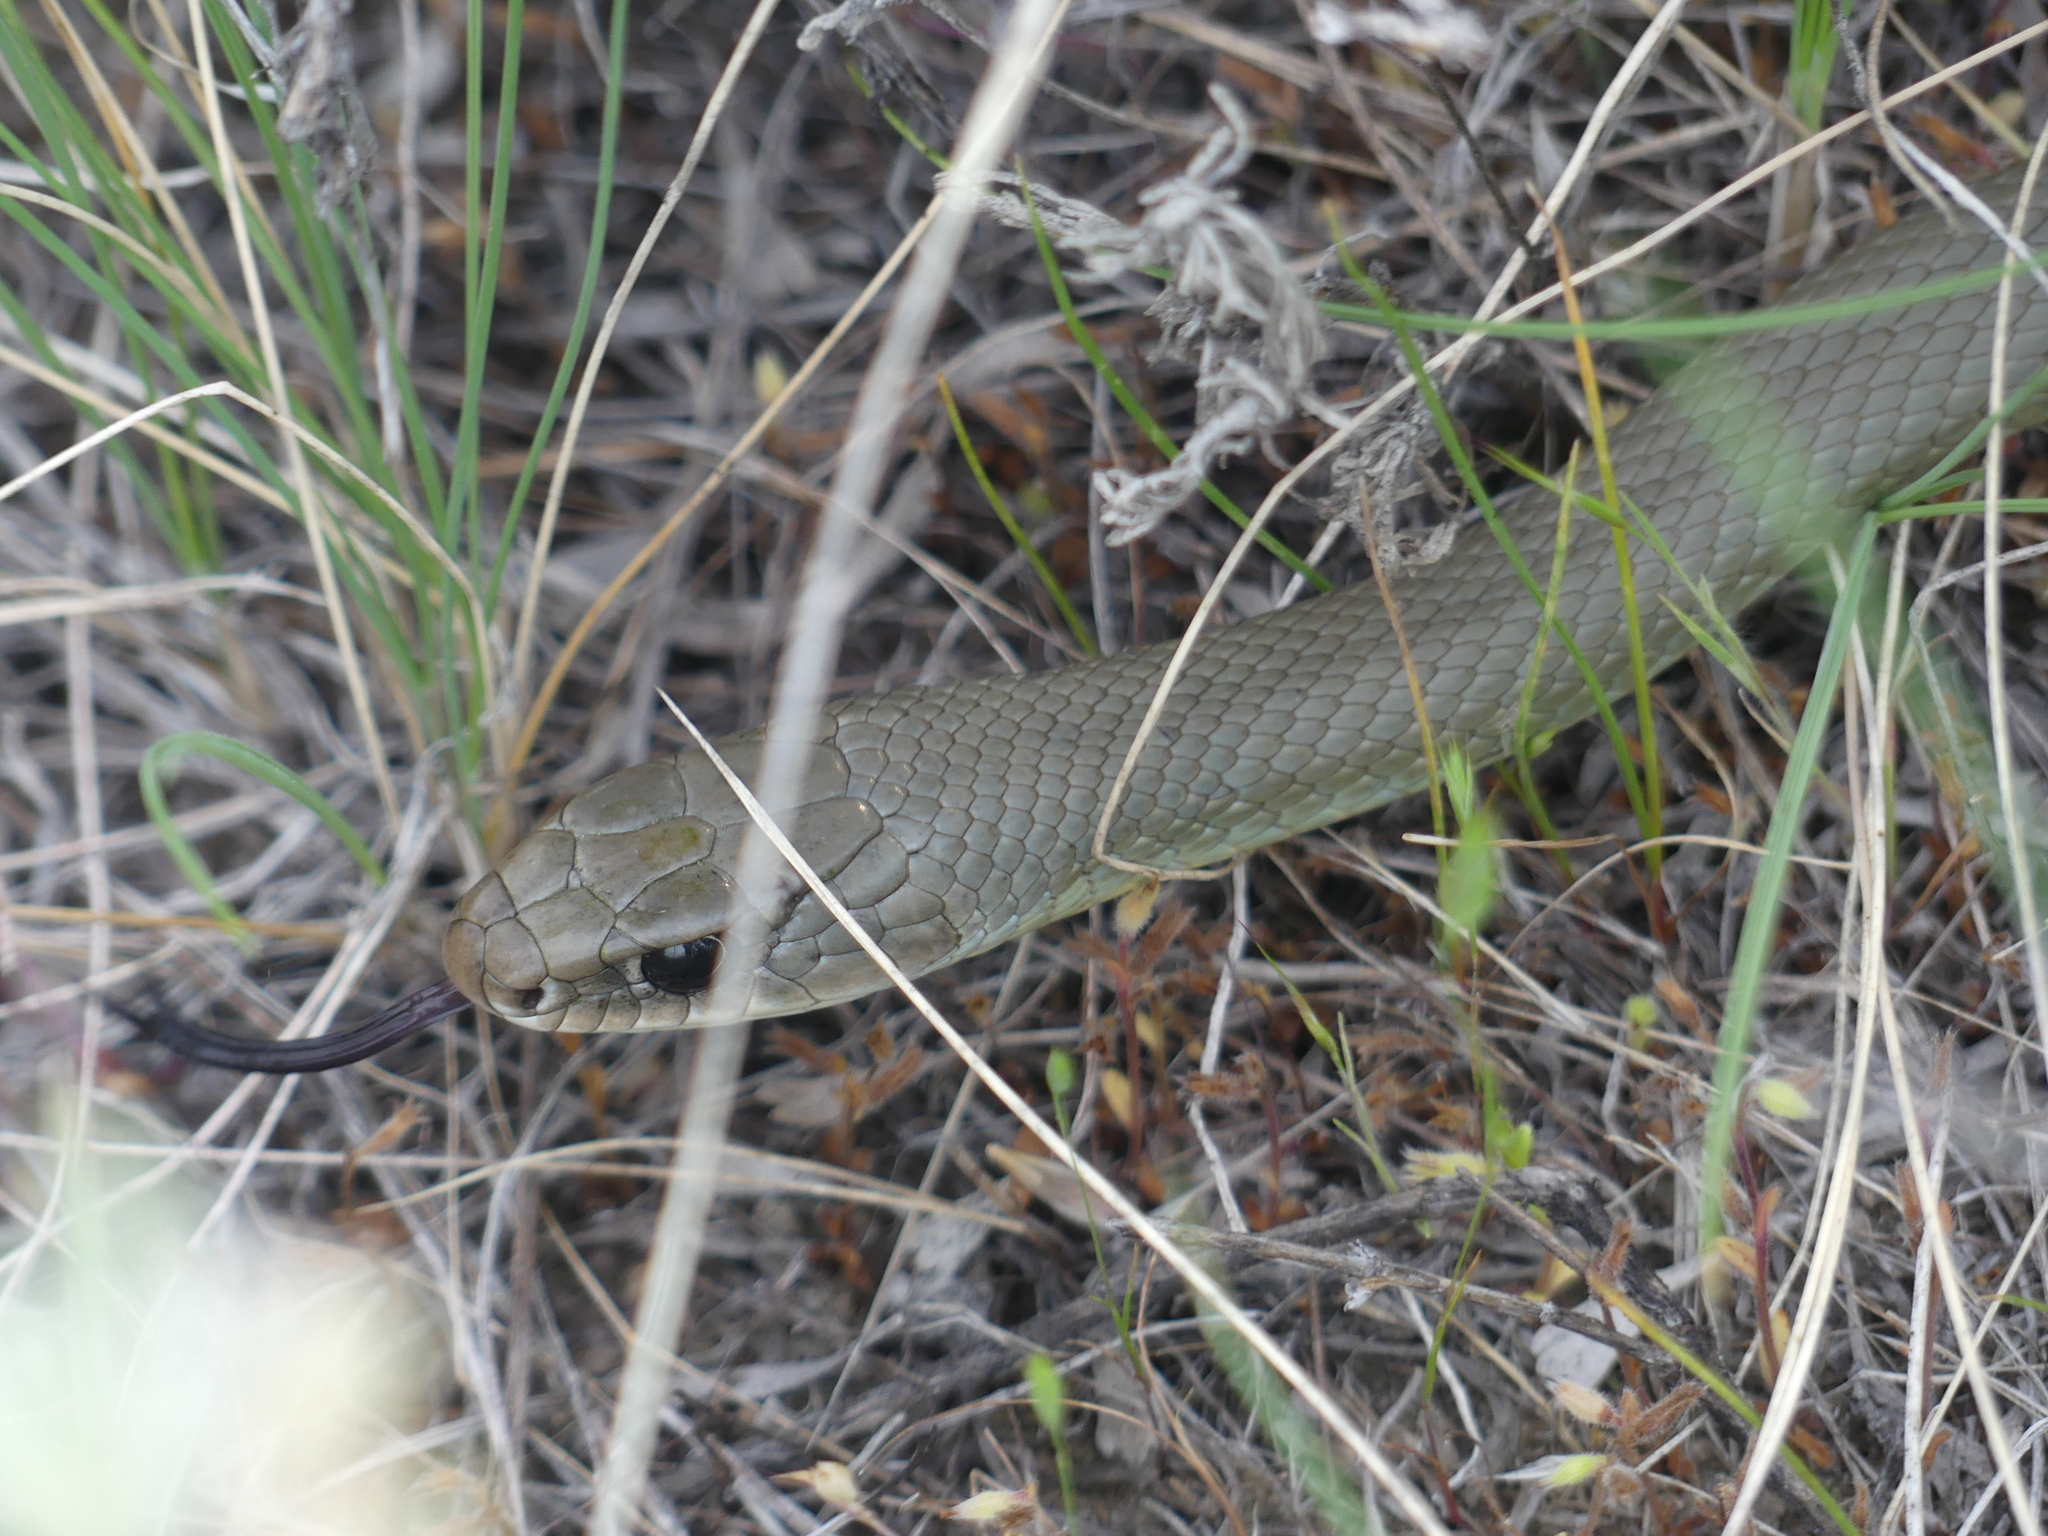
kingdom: Animalia
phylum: Chordata
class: Squamata
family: Colubridae
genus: Coluber
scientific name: Coluber constrictor
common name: Eastern racer
